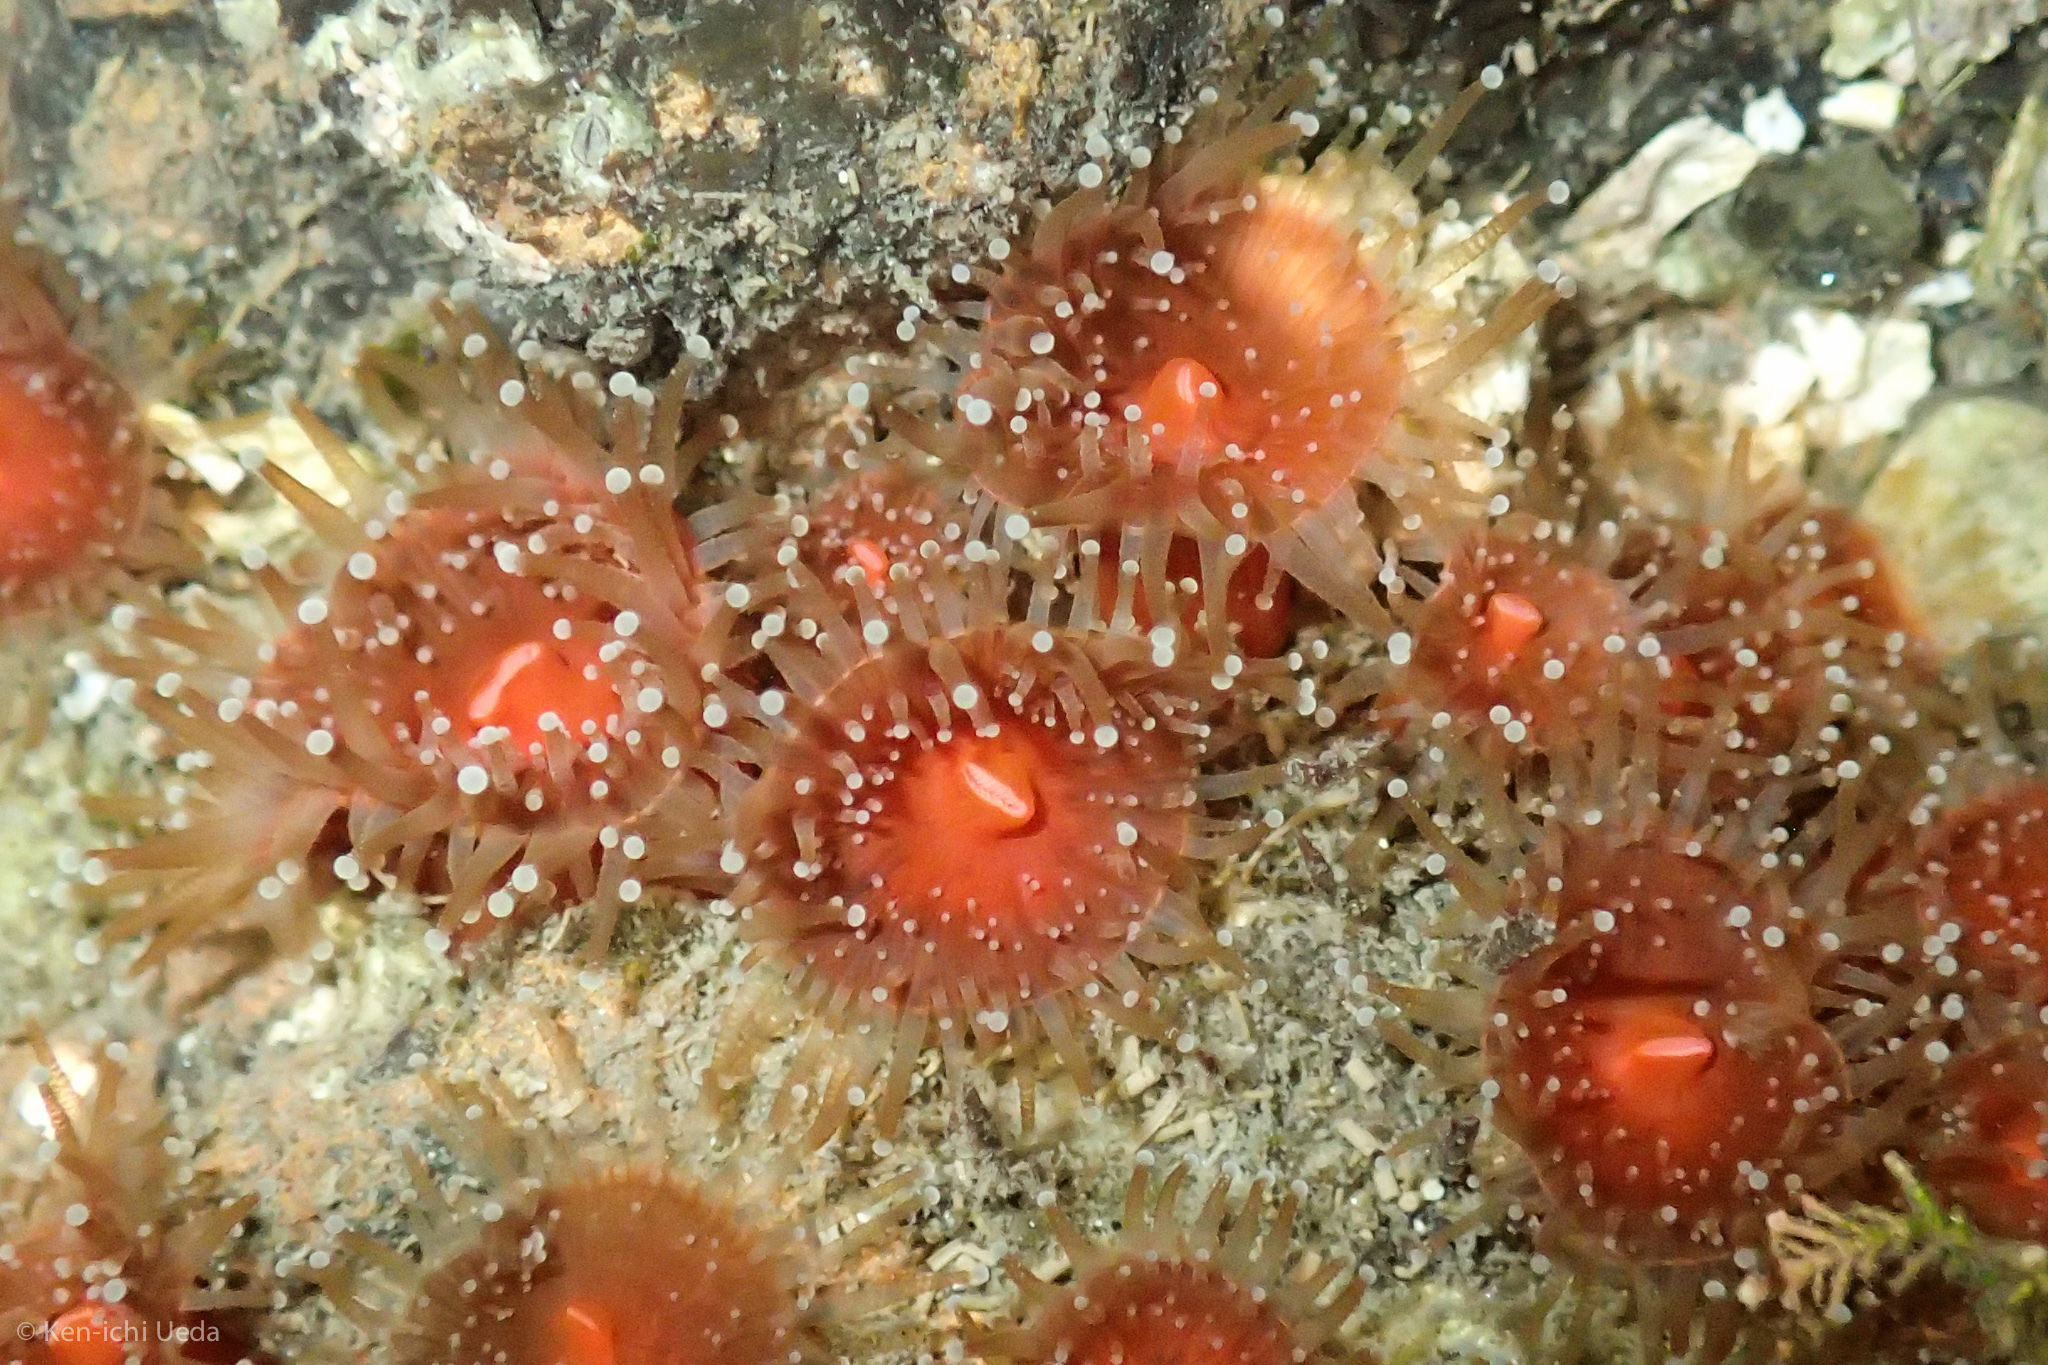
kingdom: Animalia
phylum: Cnidaria
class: Anthozoa
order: Corallimorpharia
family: Corallimorphidae
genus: Corynactis
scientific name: Corynactis californica
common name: Strawberry corallimorpharian
